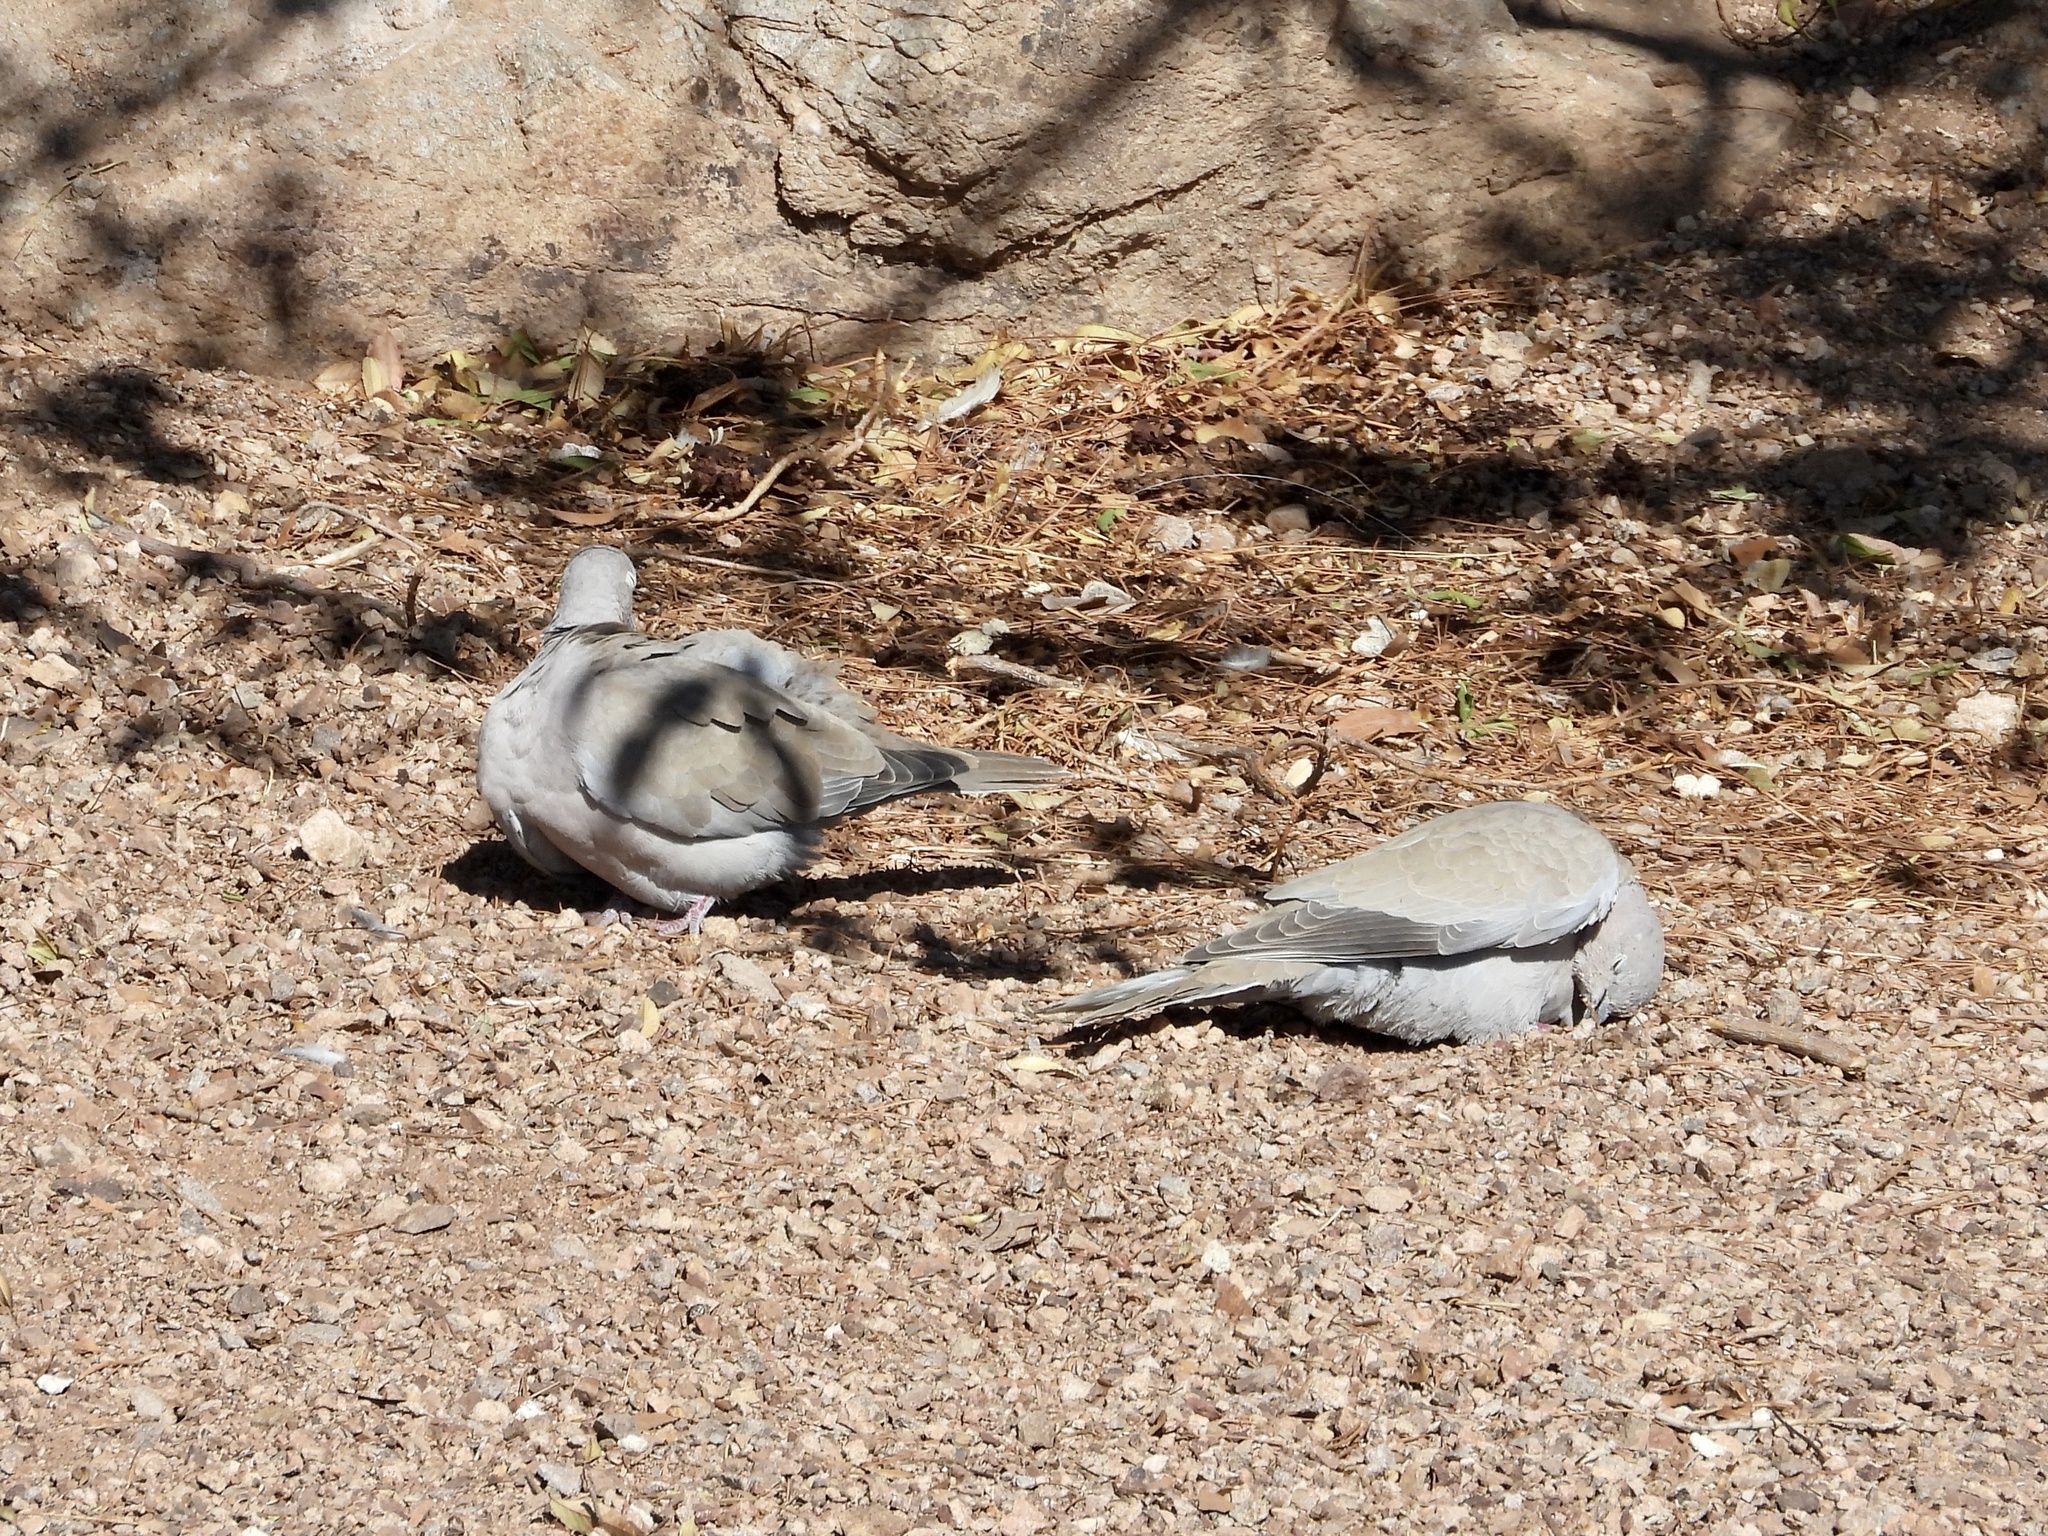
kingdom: Animalia
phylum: Chordata
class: Aves
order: Columbiformes
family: Columbidae
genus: Streptopelia
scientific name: Streptopelia decaocto
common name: Eurasian collared dove
